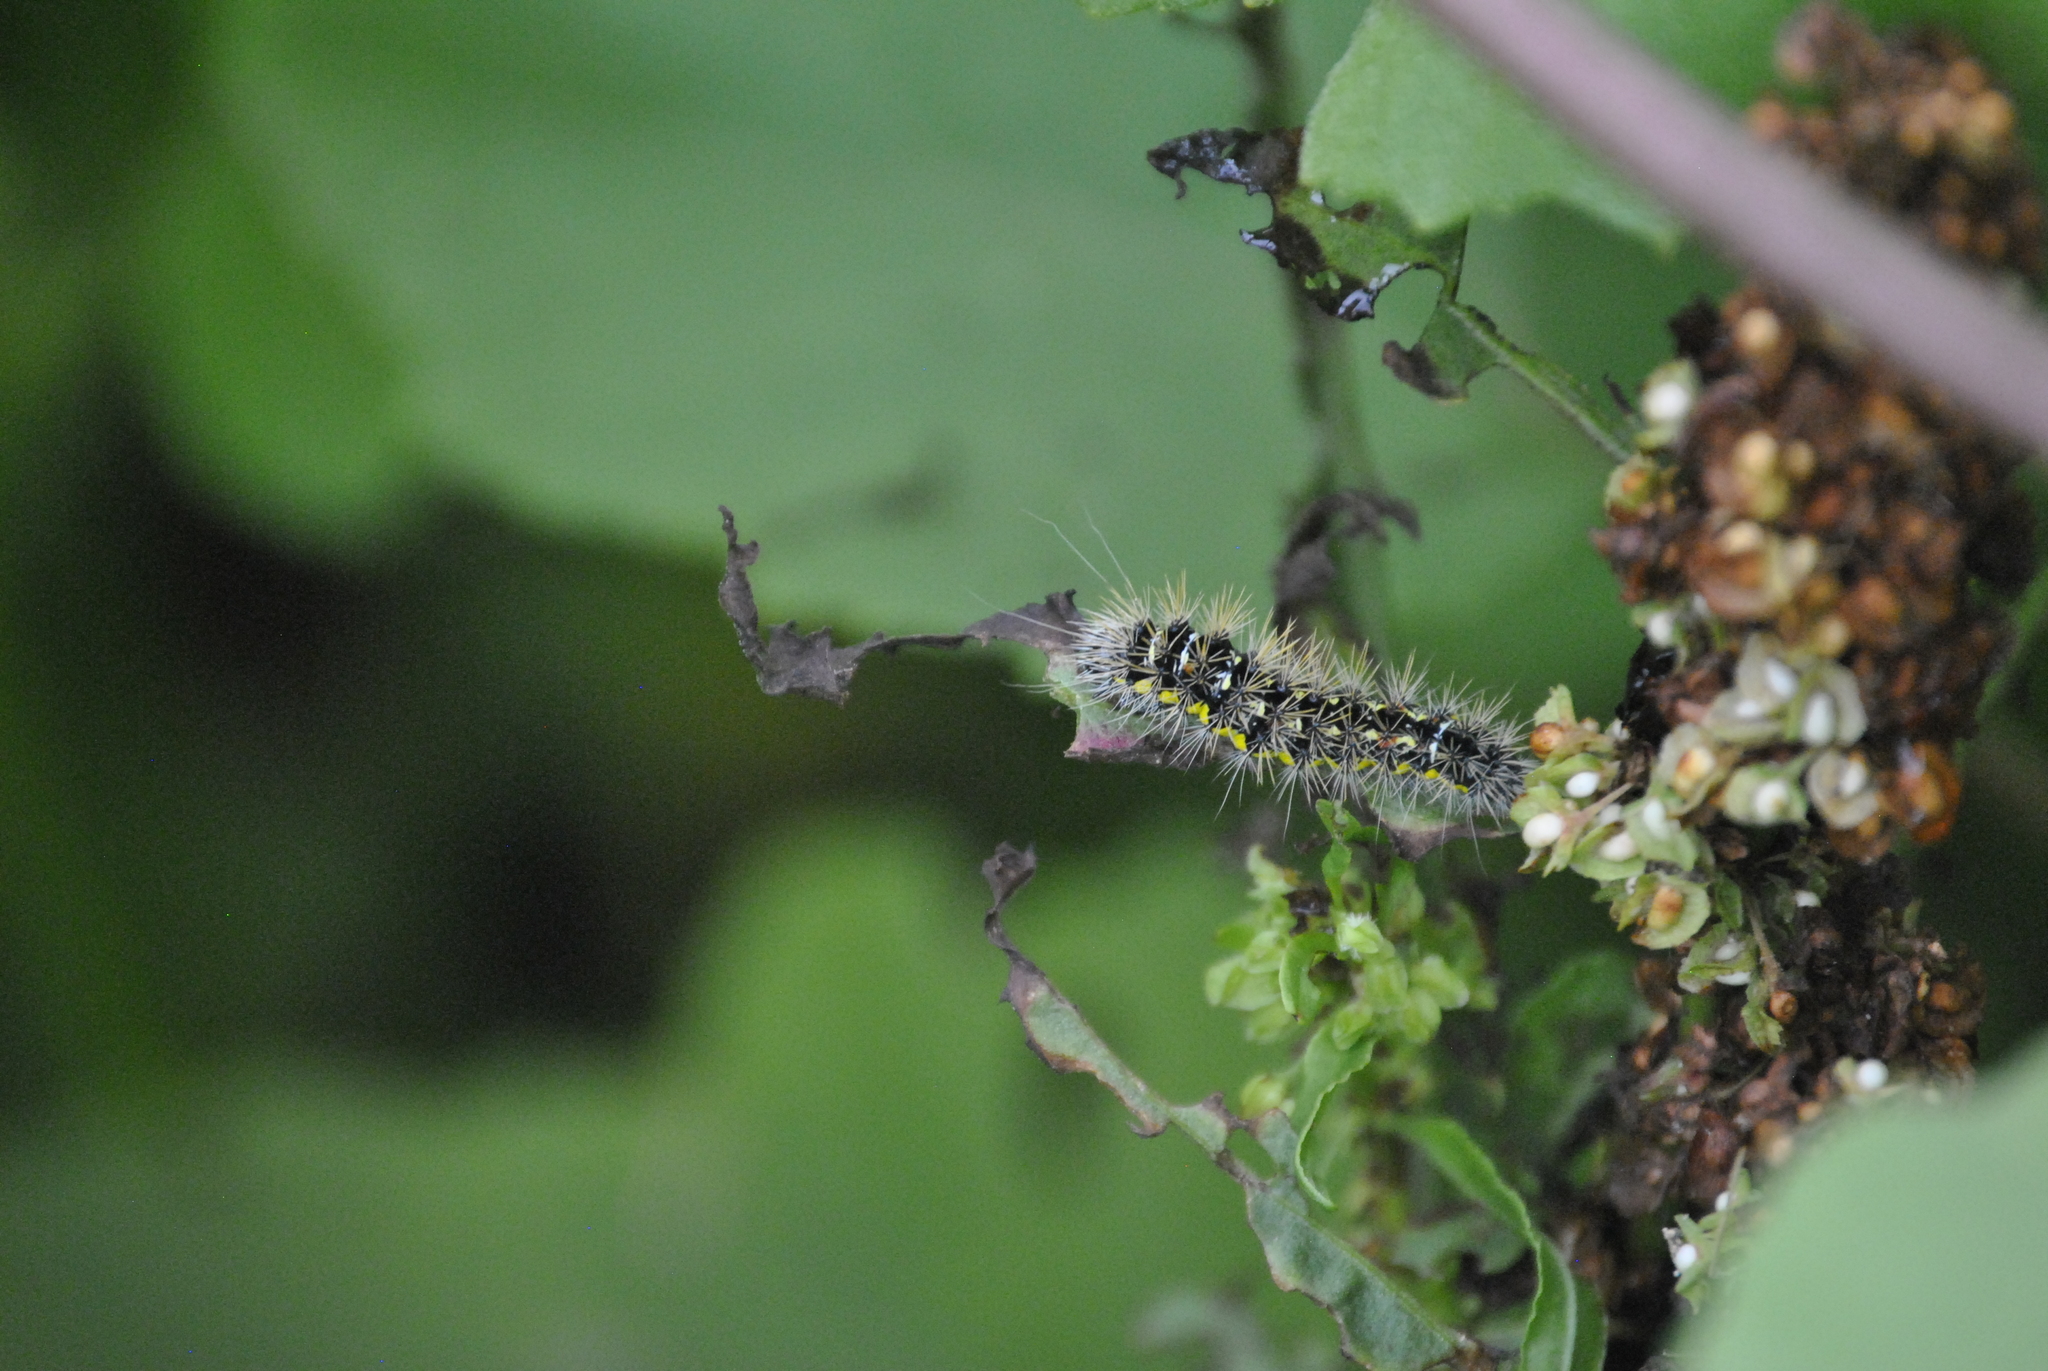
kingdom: Animalia
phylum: Arthropoda
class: Insecta
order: Lepidoptera
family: Noctuidae
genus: Acronicta
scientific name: Acronicta oblinita
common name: Smeared dagger
